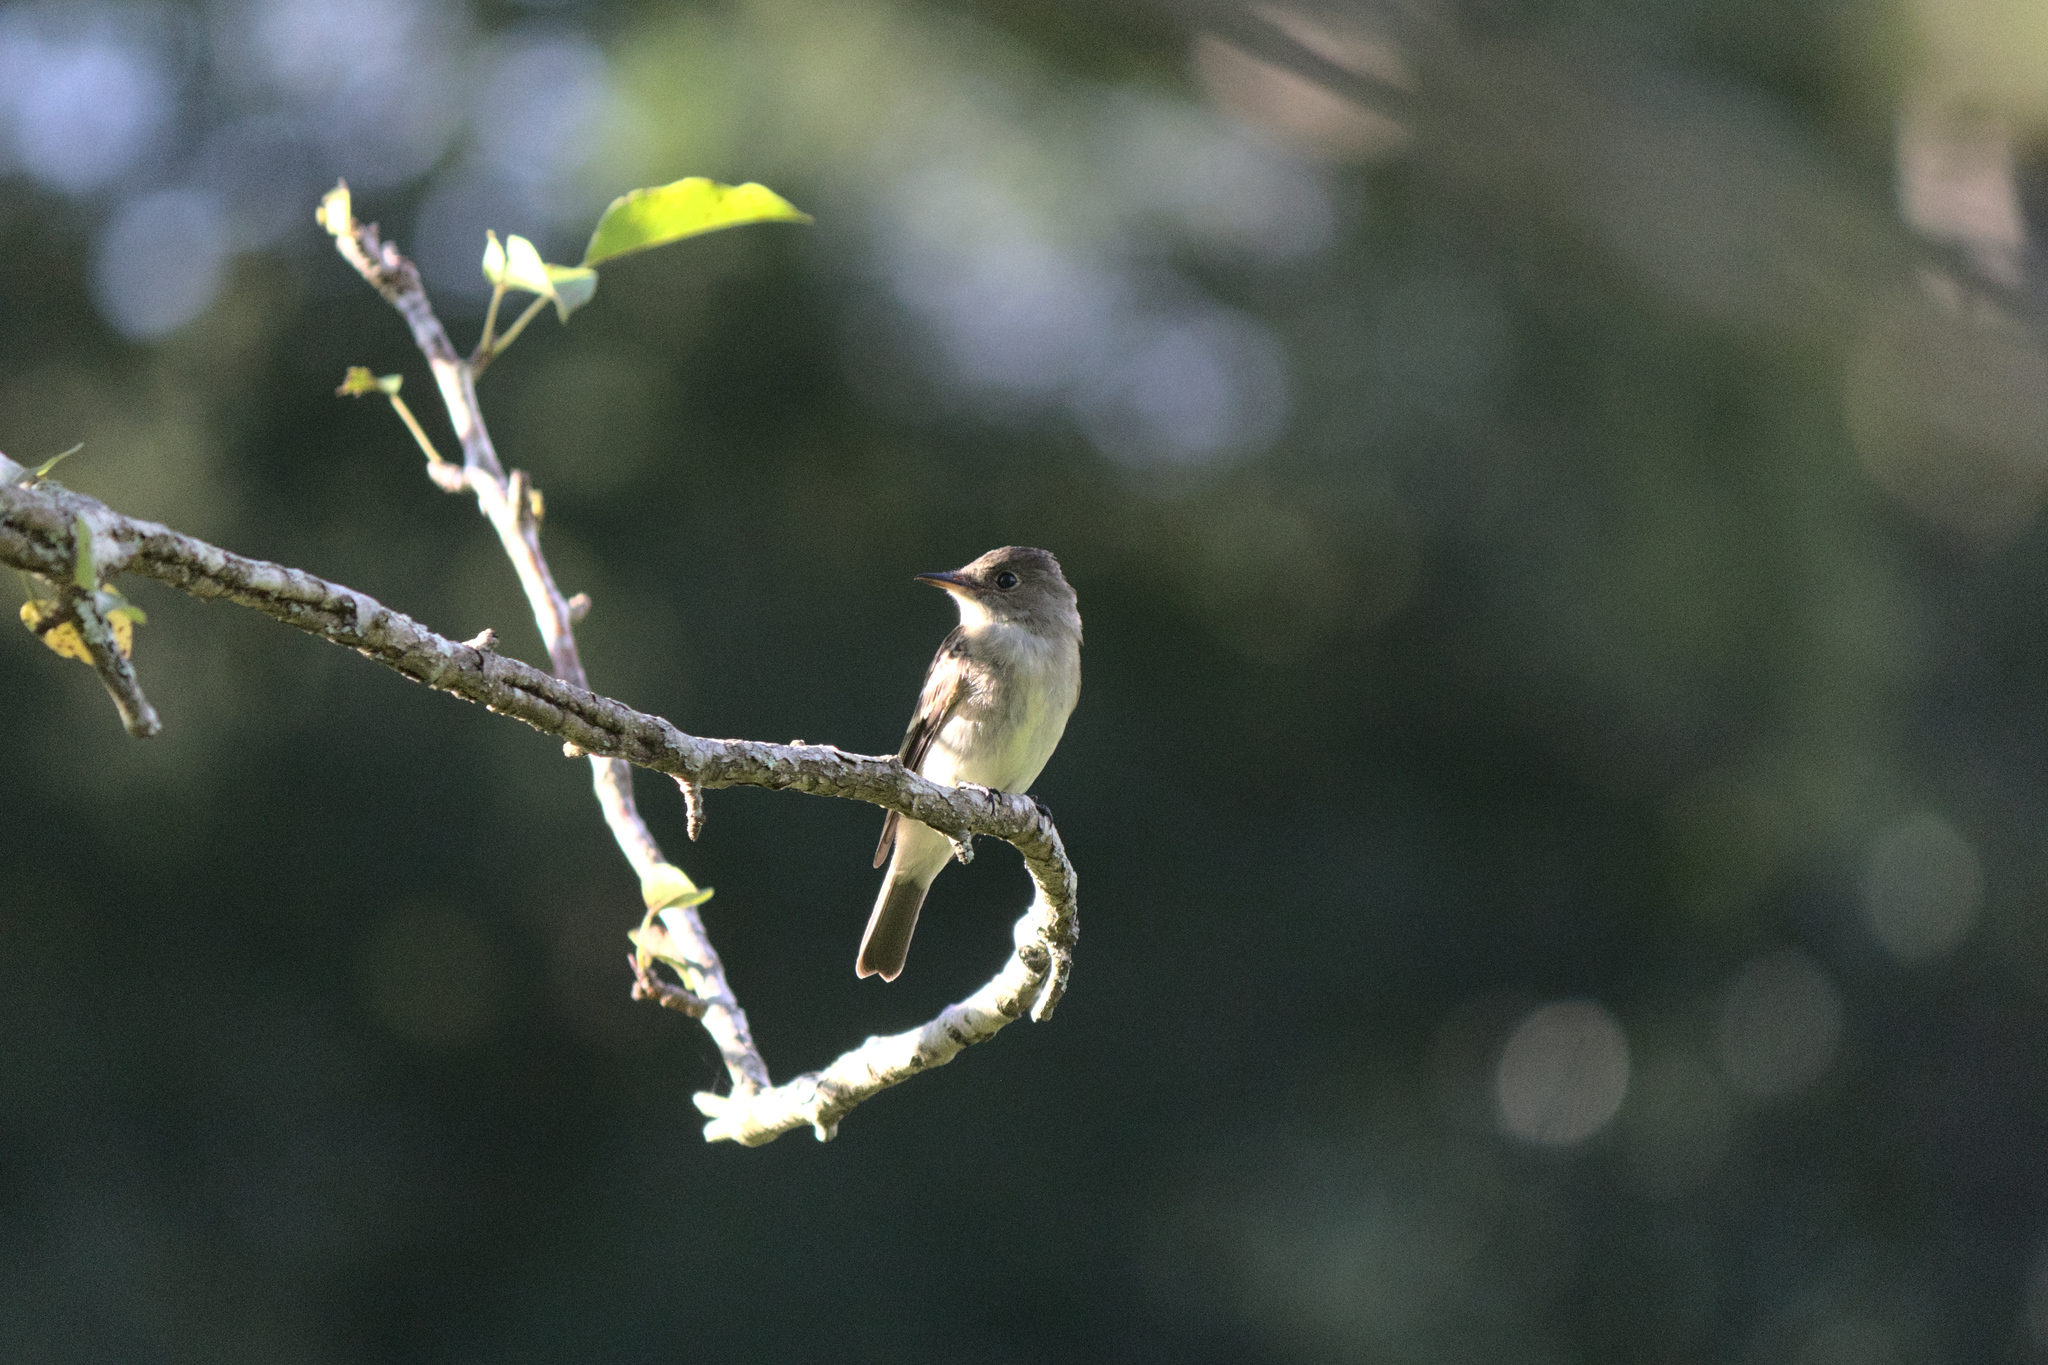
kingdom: Animalia
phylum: Chordata
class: Aves
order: Passeriformes
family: Tyrannidae
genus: Contopus
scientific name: Contopus virens
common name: Eastern wood-pewee
